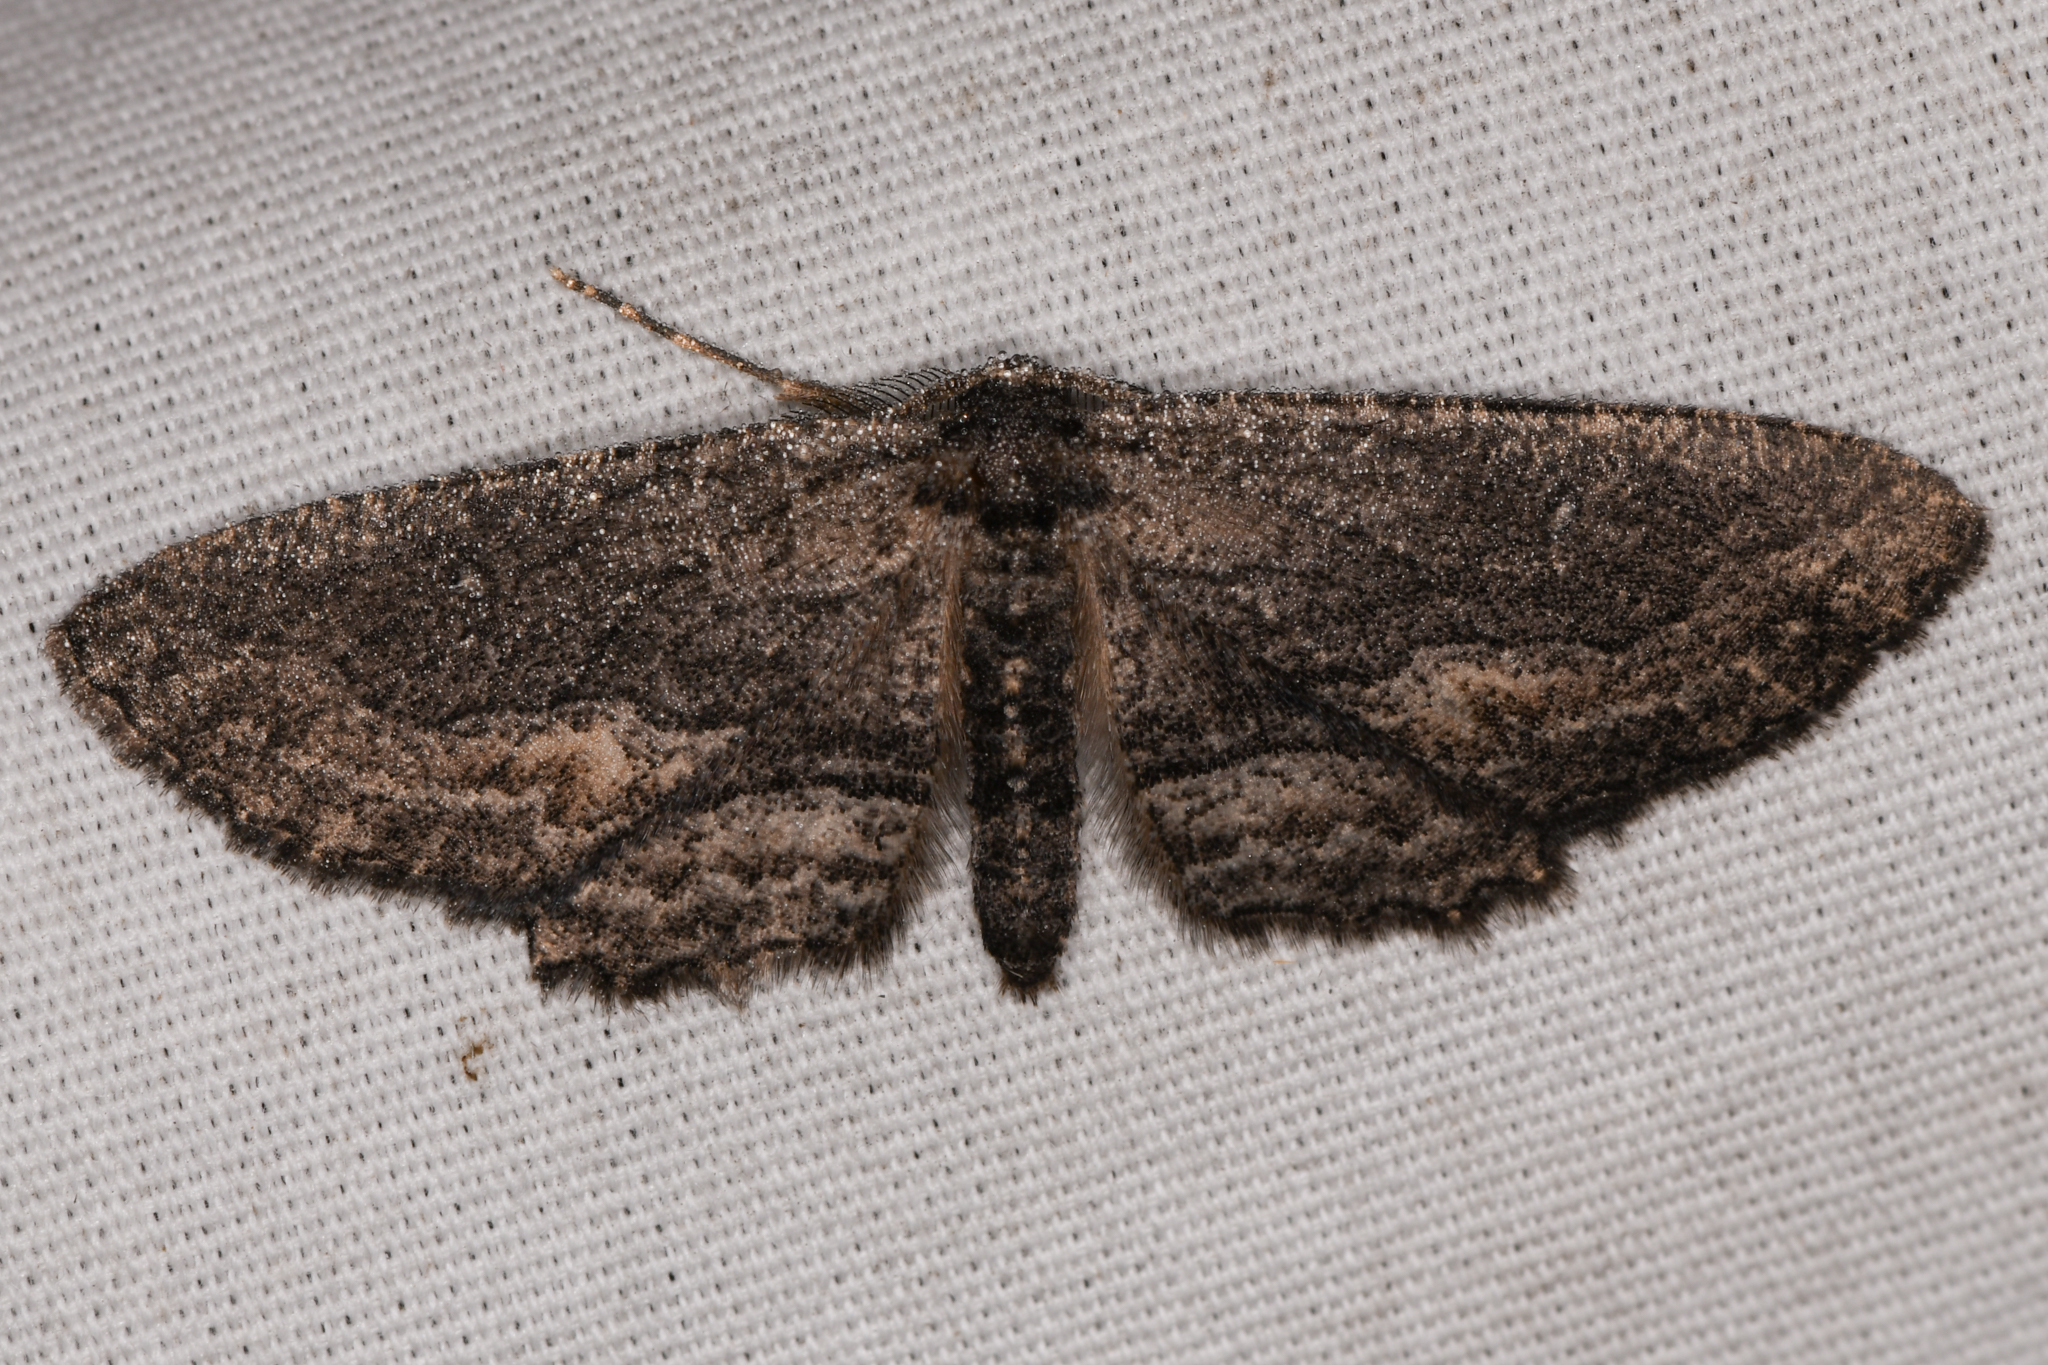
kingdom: Animalia
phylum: Arthropoda
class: Insecta
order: Lepidoptera
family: Geometridae
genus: Aethaloida
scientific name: Aethaloida packardaria
